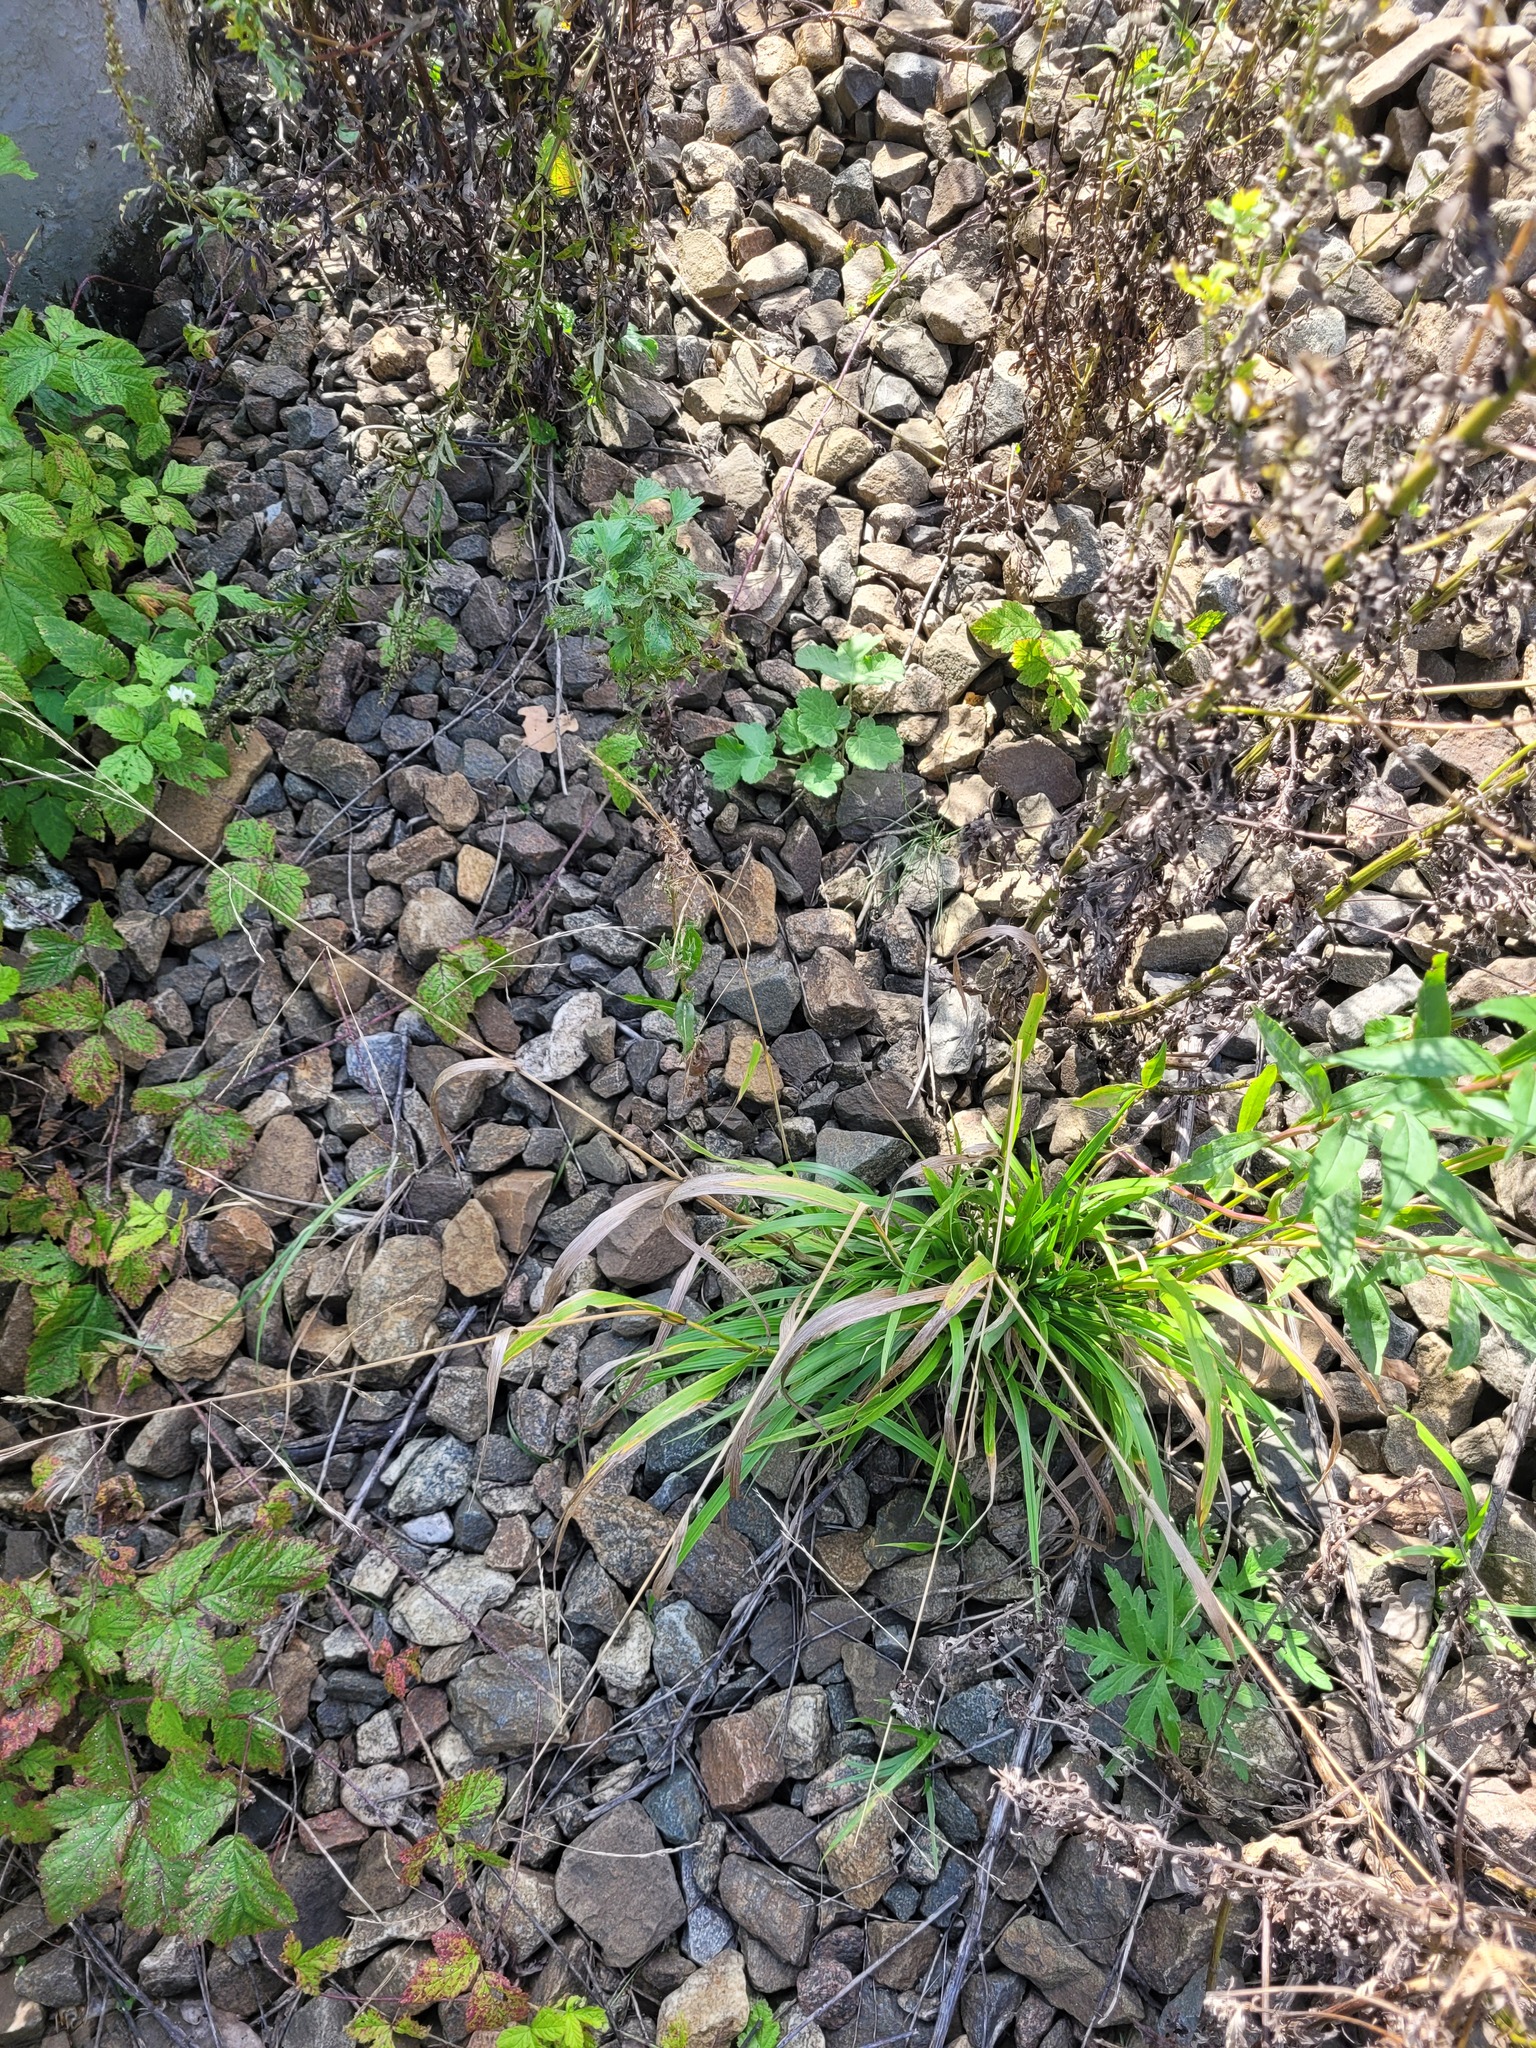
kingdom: Plantae
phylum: Tracheophyta
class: Liliopsida
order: Poales
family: Poaceae
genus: Lolium
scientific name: Lolium giganteum
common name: Giant fescue
